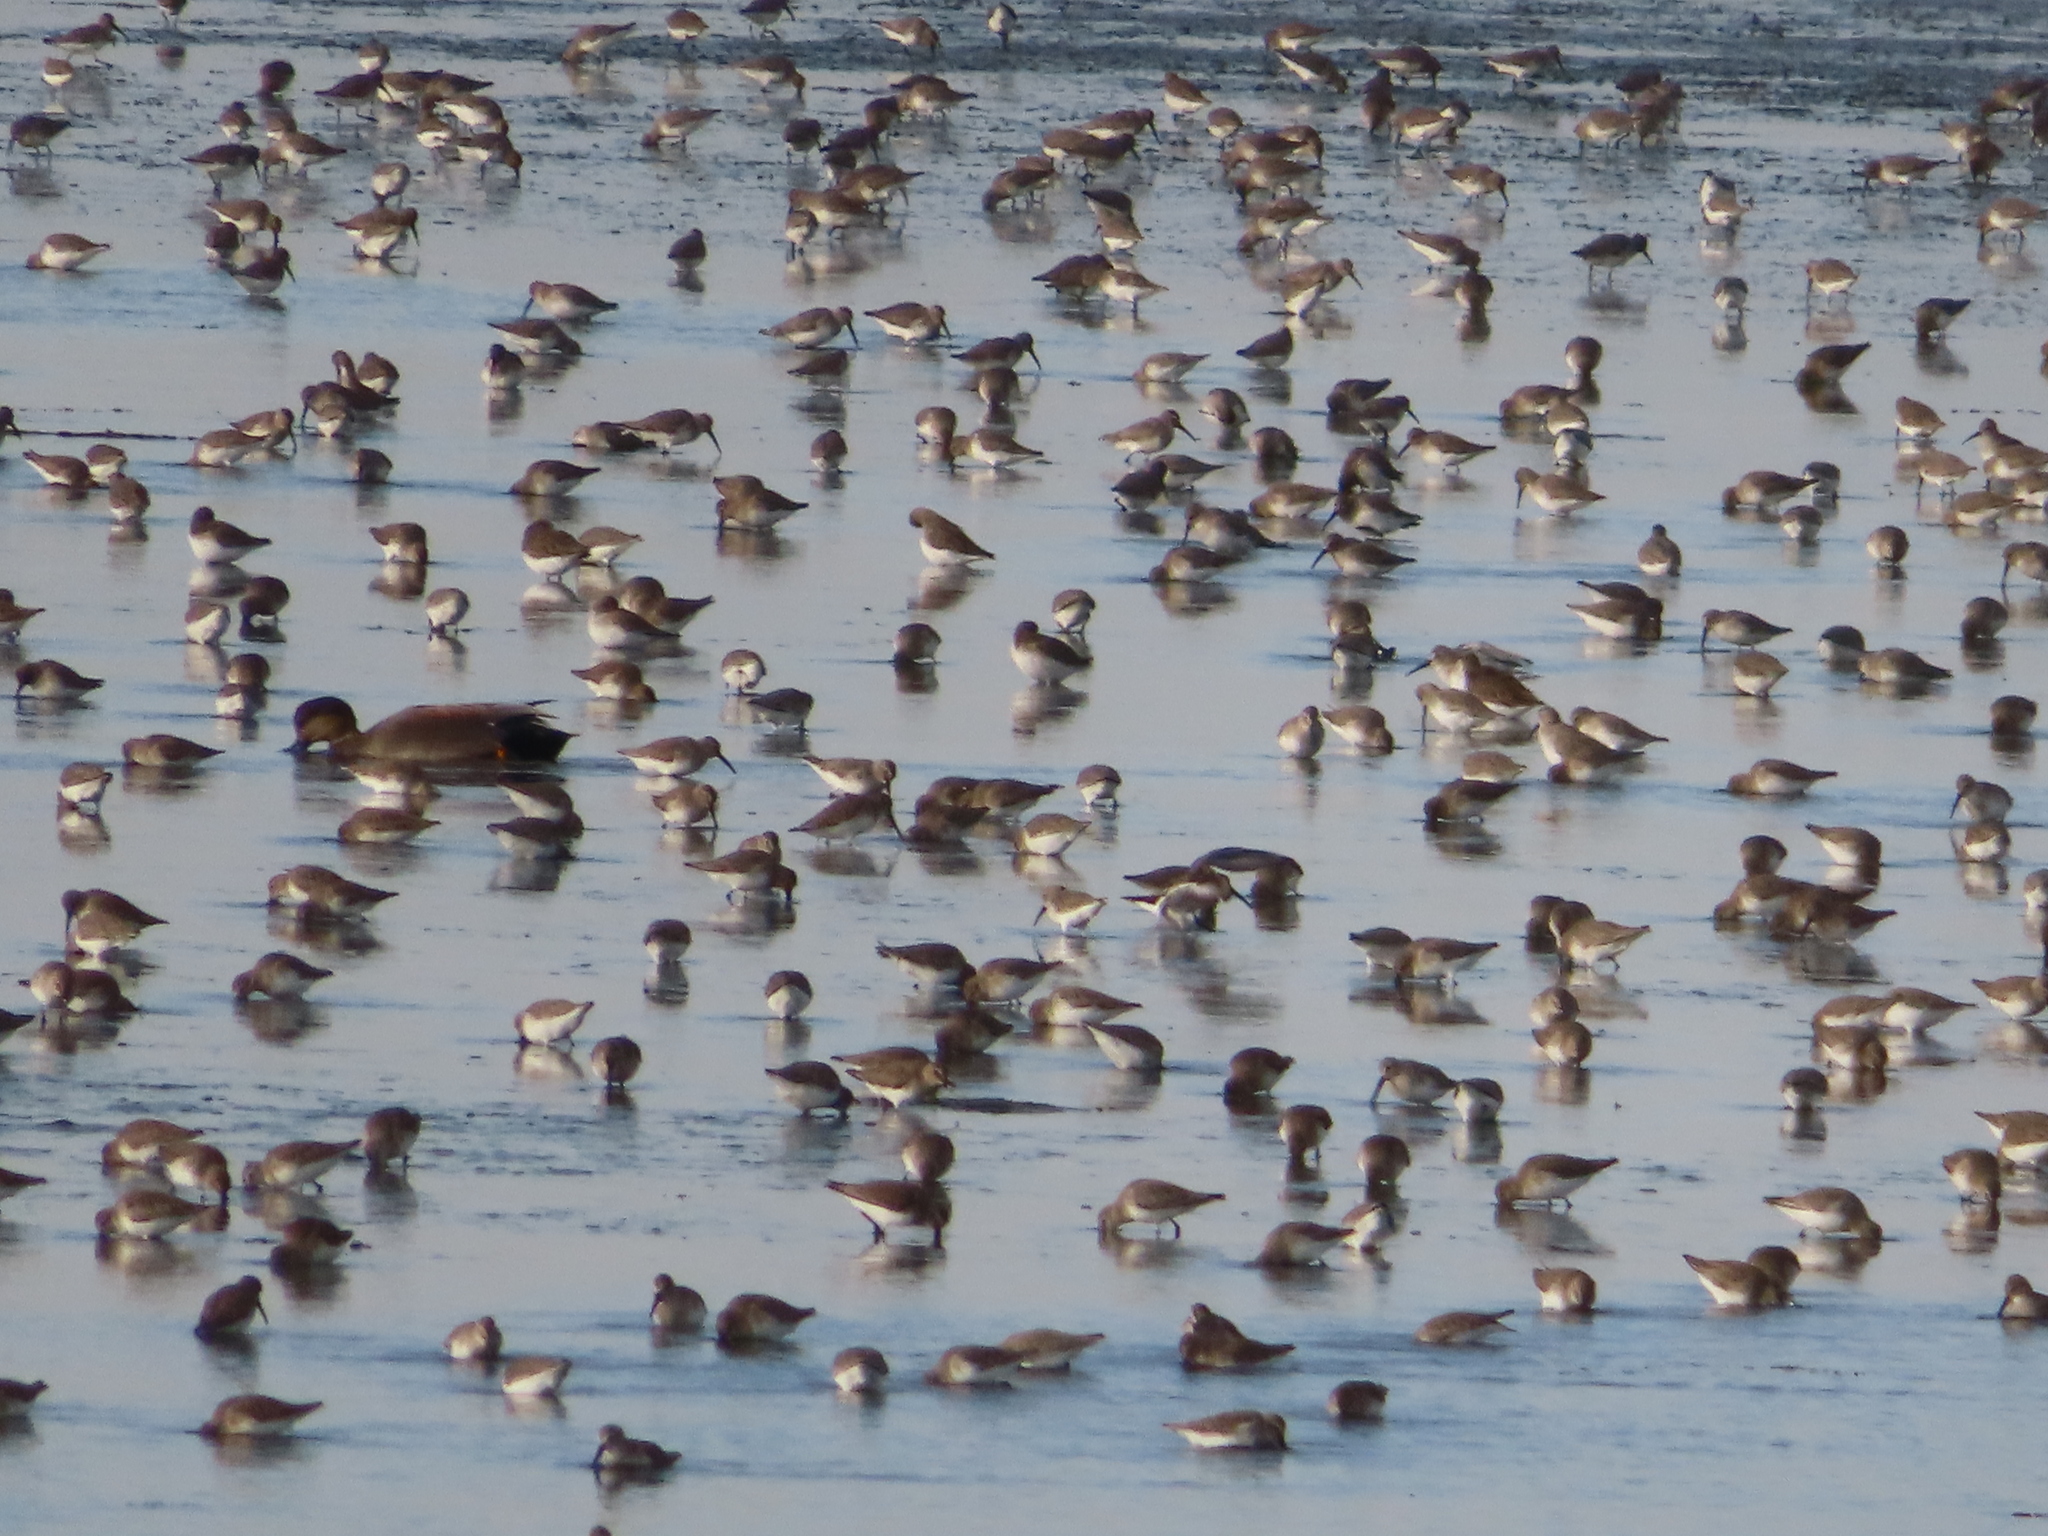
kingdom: Animalia
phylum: Chordata
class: Aves
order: Charadriiformes
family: Scolopacidae
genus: Calidris
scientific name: Calidris alpina
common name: Dunlin
